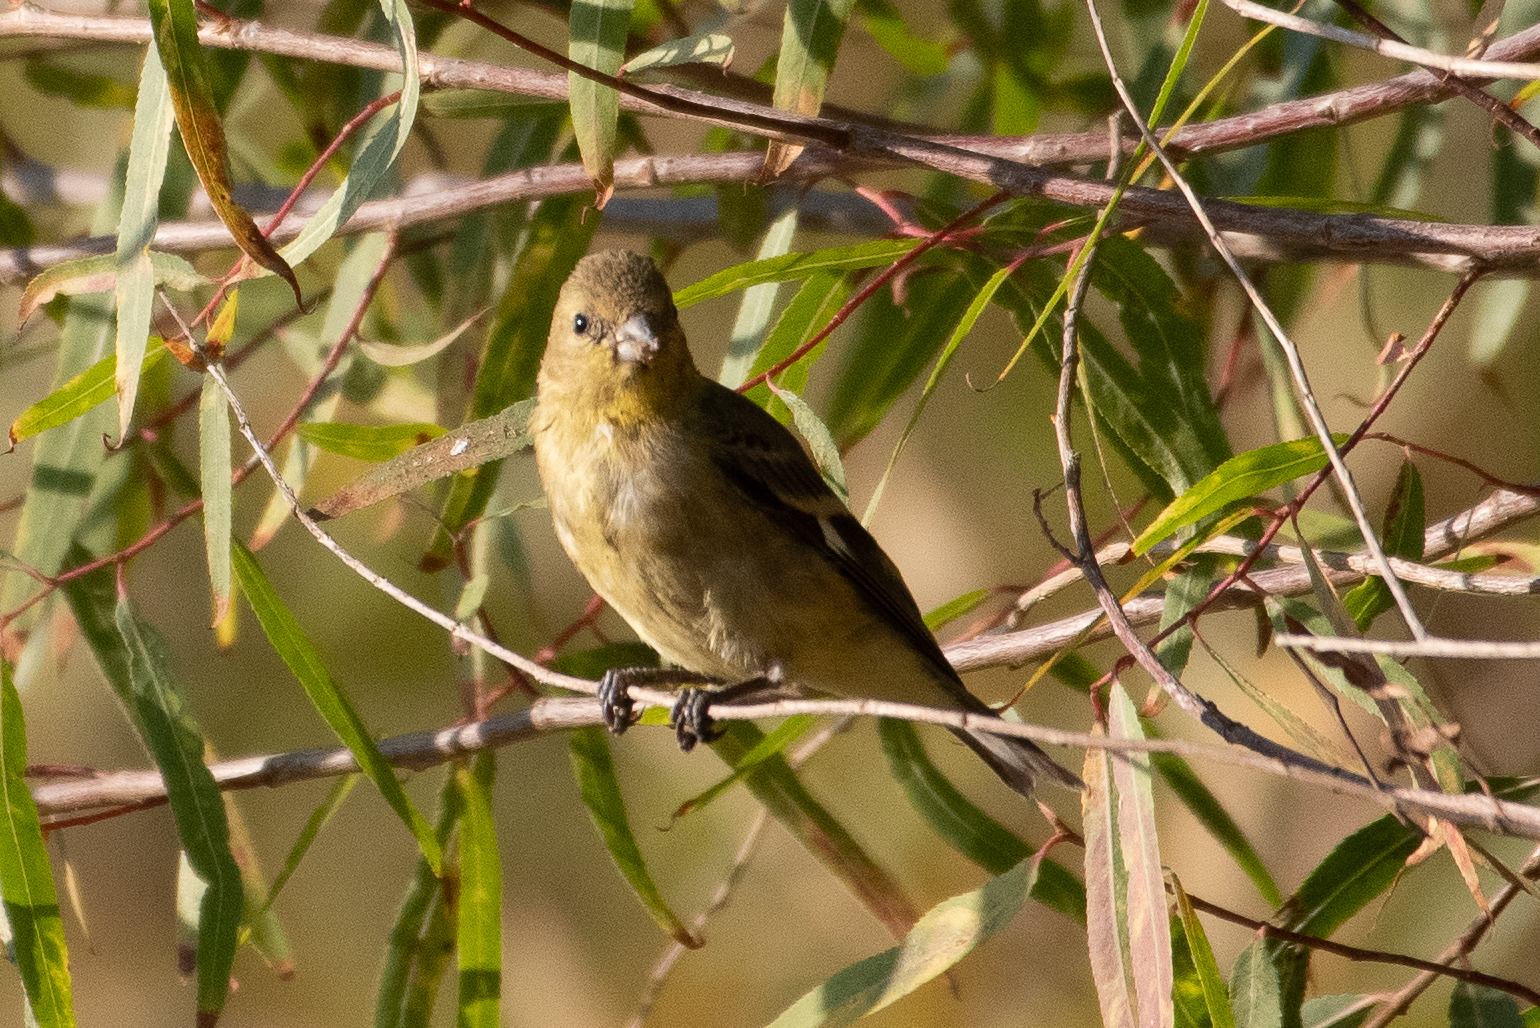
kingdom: Animalia
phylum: Chordata
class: Aves
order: Passeriformes
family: Fringillidae
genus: Spinus
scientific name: Spinus psaltria
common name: Lesser goldfinch
